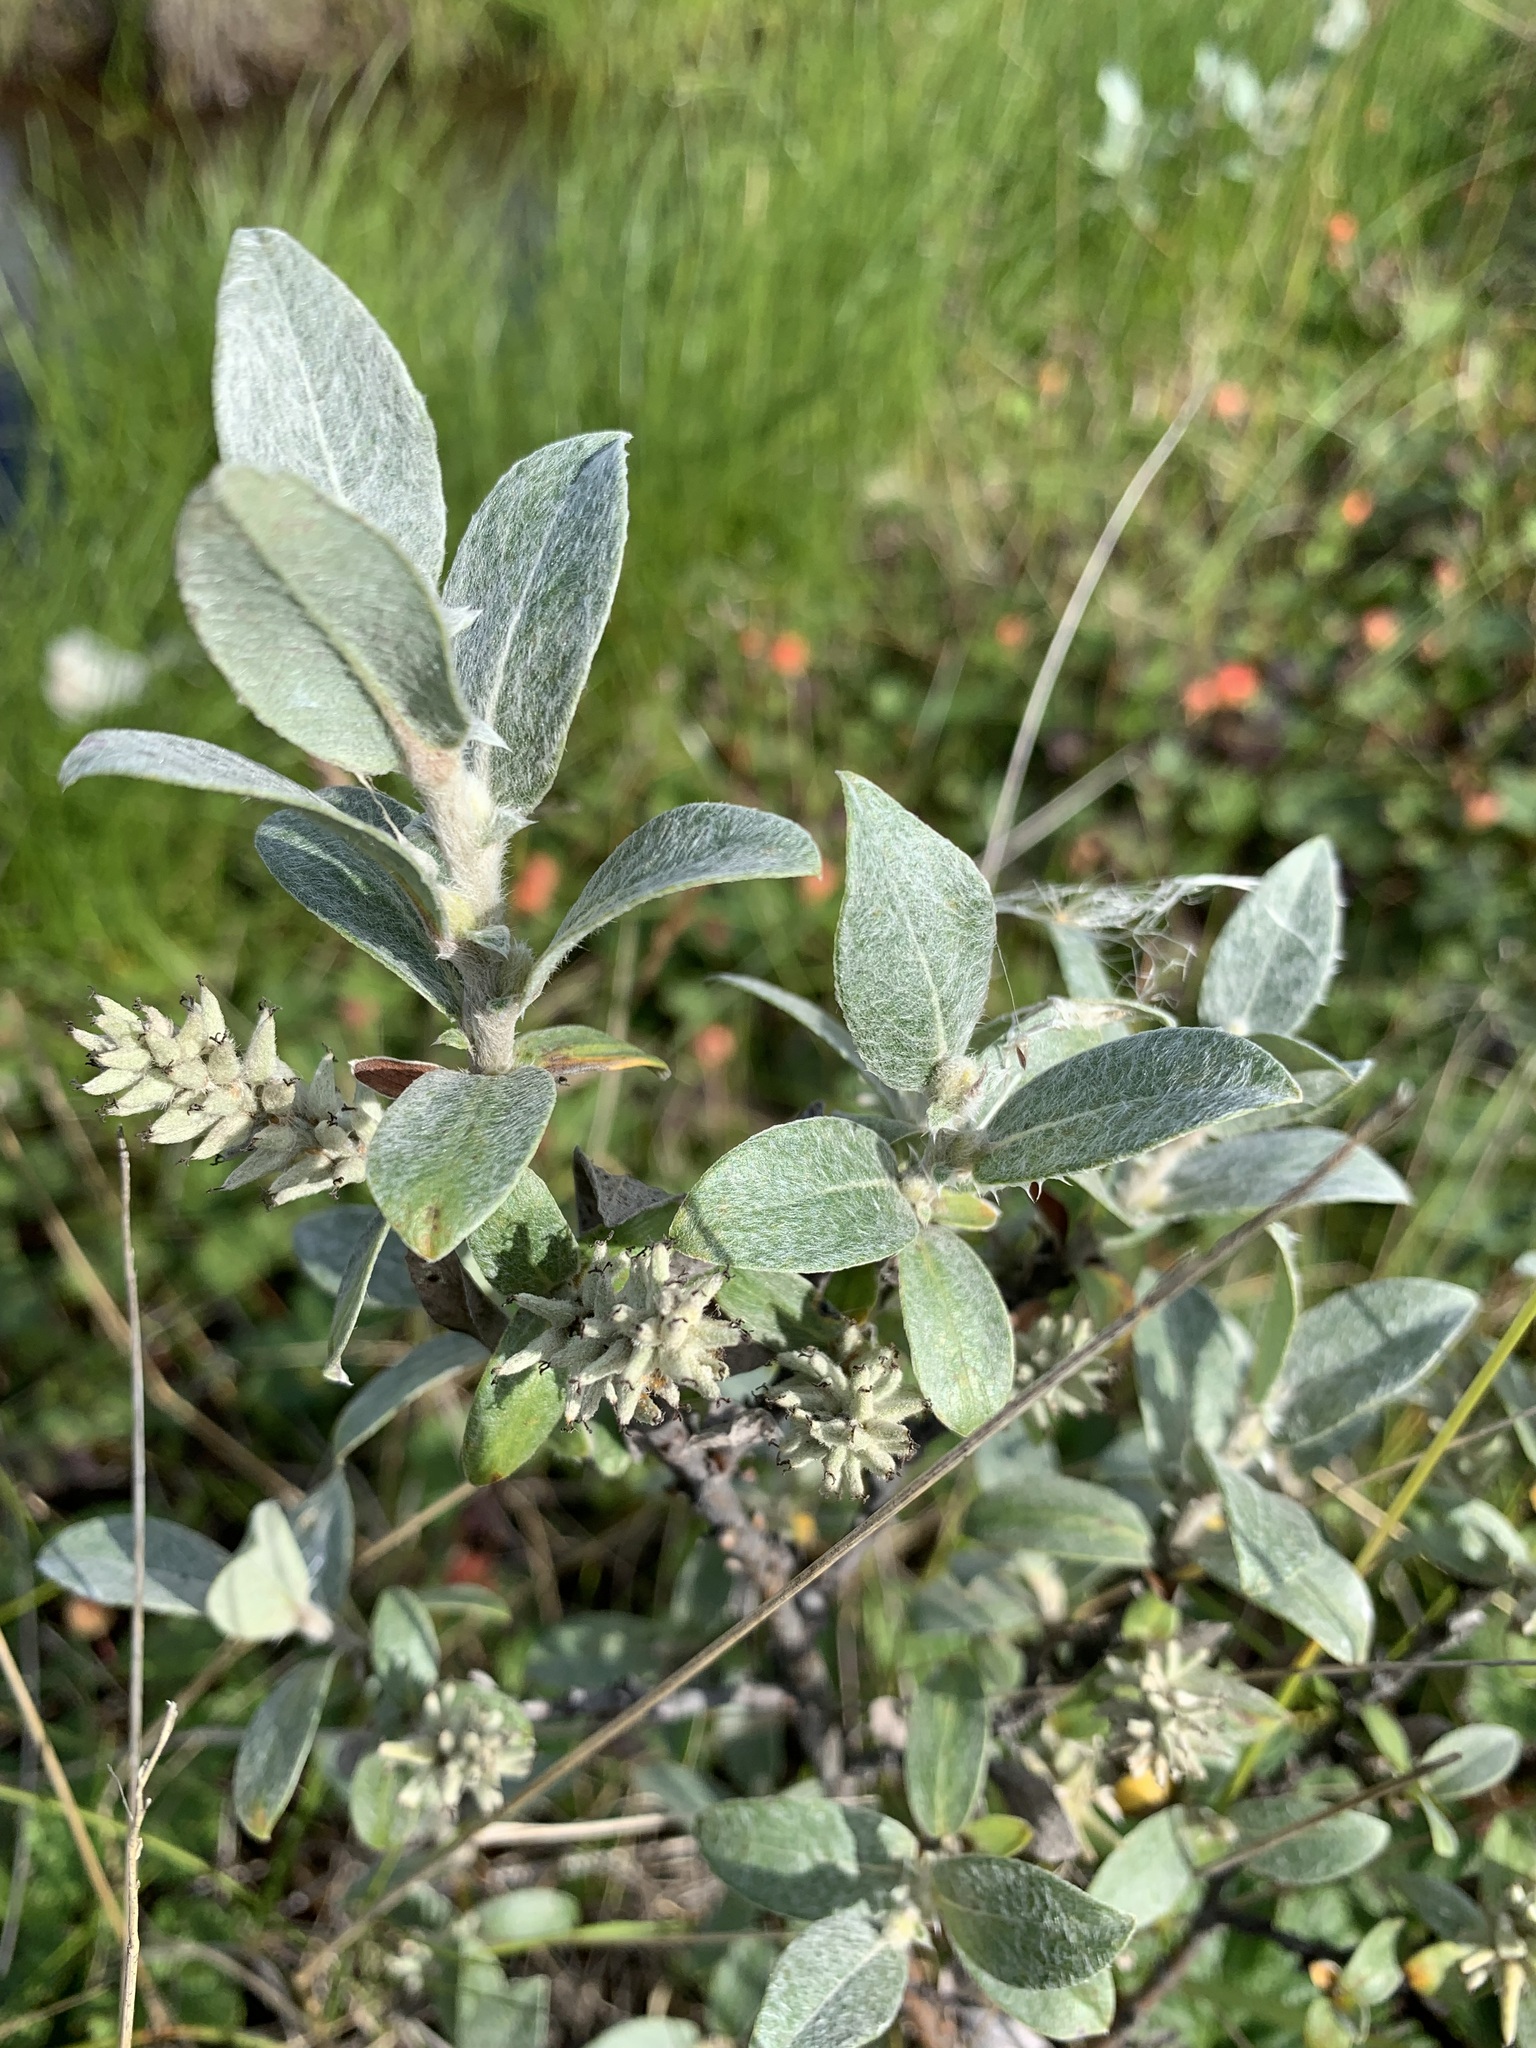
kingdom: Plantae
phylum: Tracheophyta
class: Magnoliopsida
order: Malpighiales
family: Salicaceae
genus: Salix
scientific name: Salix glauca
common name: Glaucous willow
